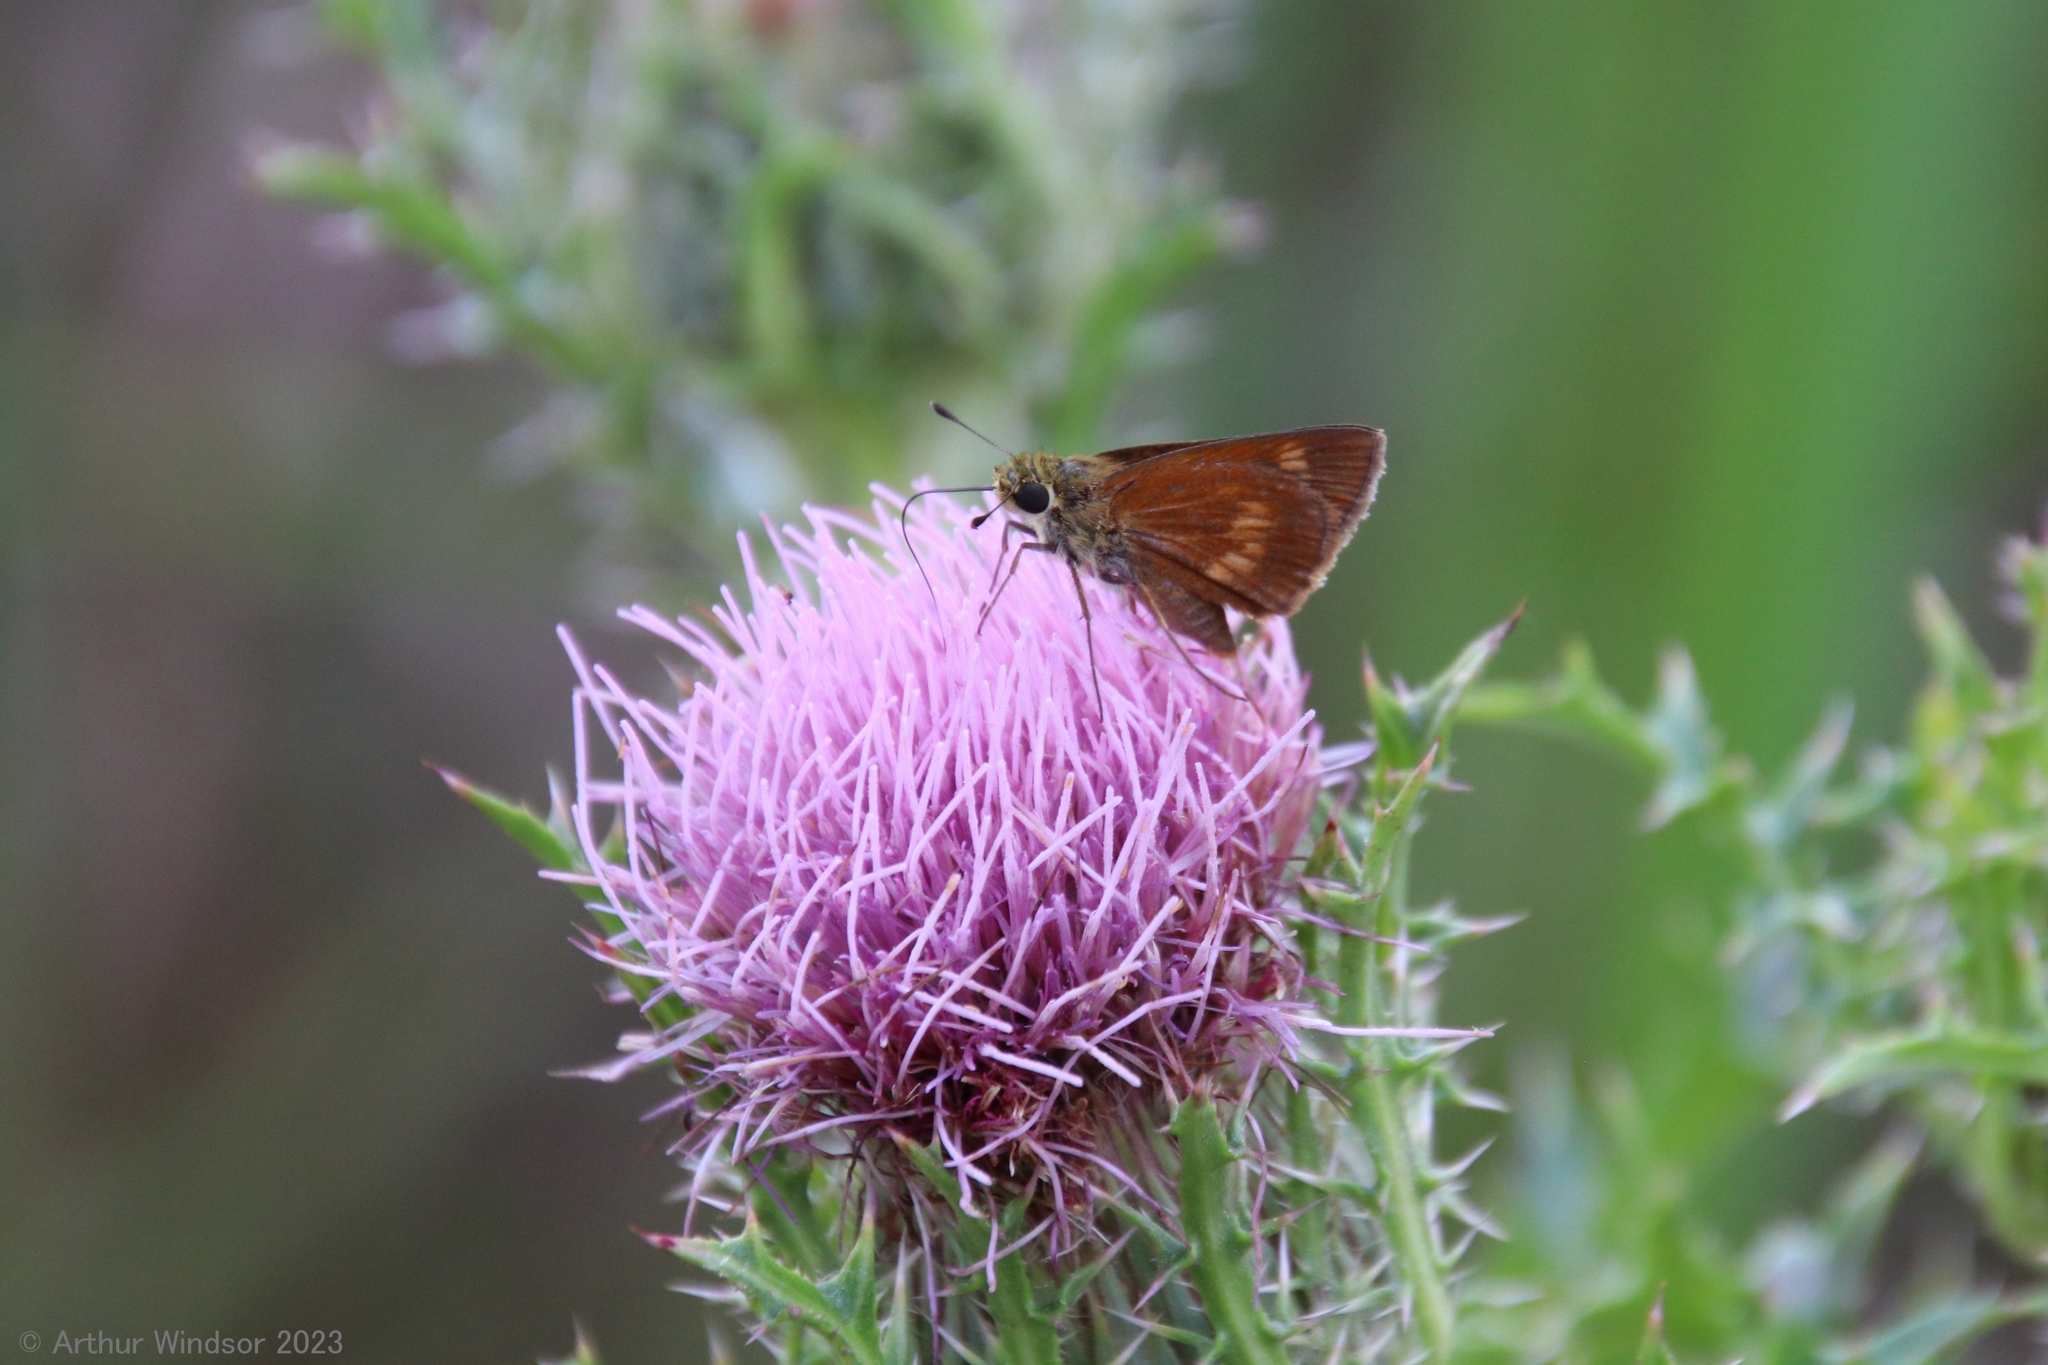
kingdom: Animalia
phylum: Arthropoda
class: Insecta
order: Lepidoptera
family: Hesperiidae
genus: Polites
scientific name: Polites otho
